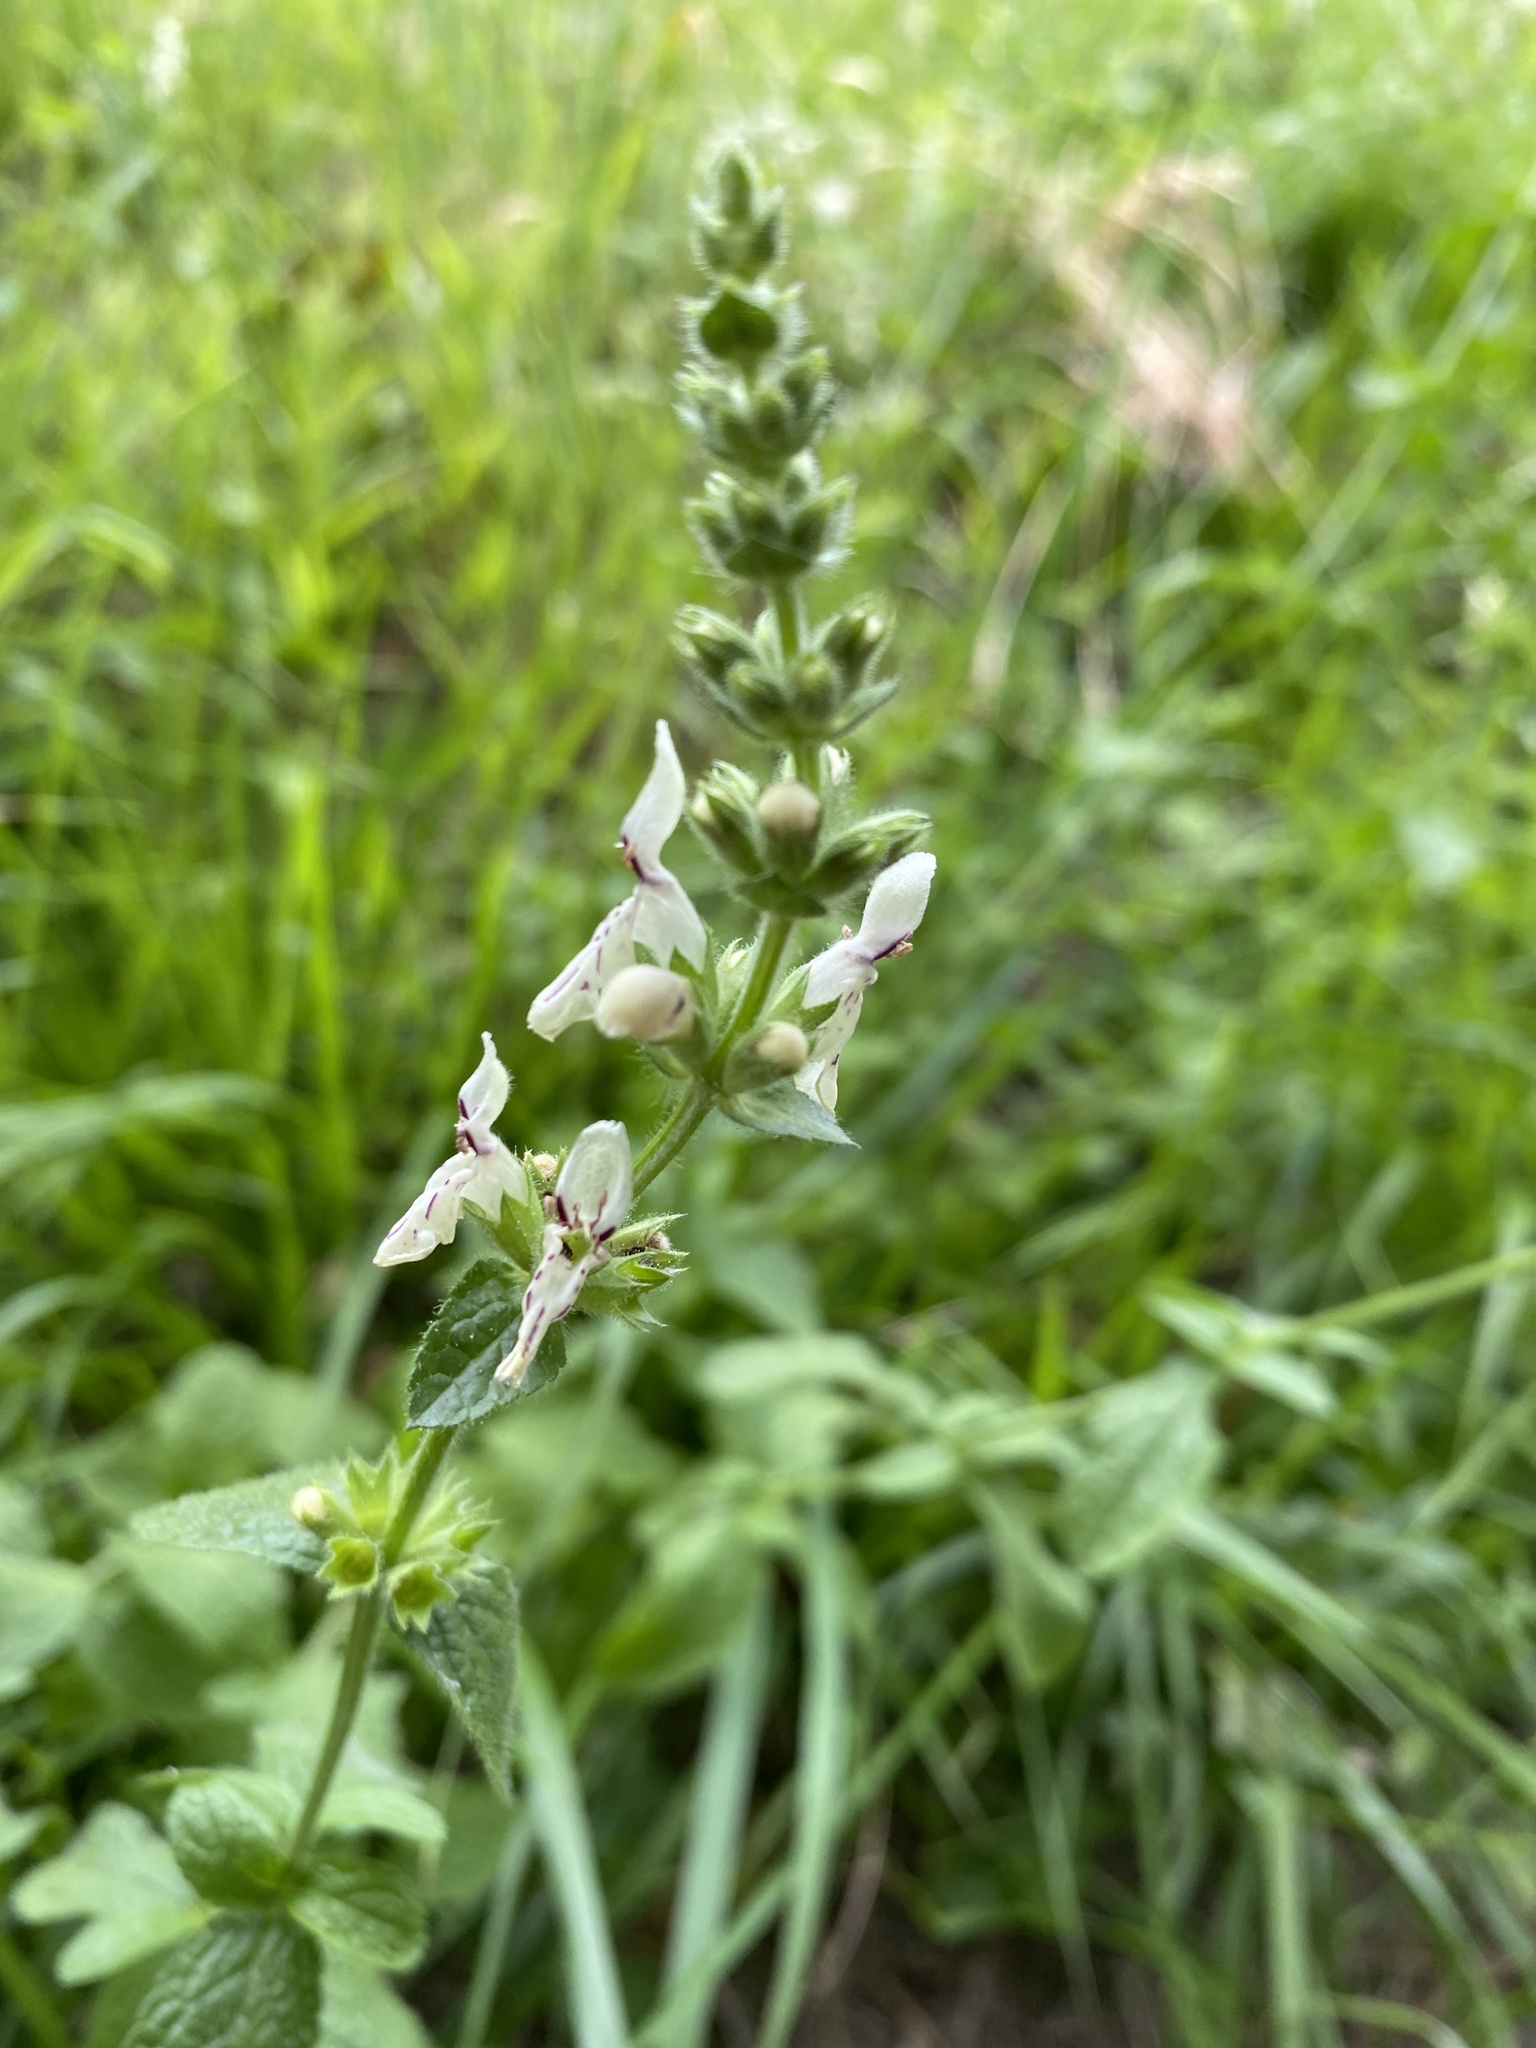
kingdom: Plantae
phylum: Tracheophyta
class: Magnoliopsida
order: Lamiales
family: Lamiaceae
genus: Stachys
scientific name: Stachys recta
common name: Perennial yellow-woundwort
